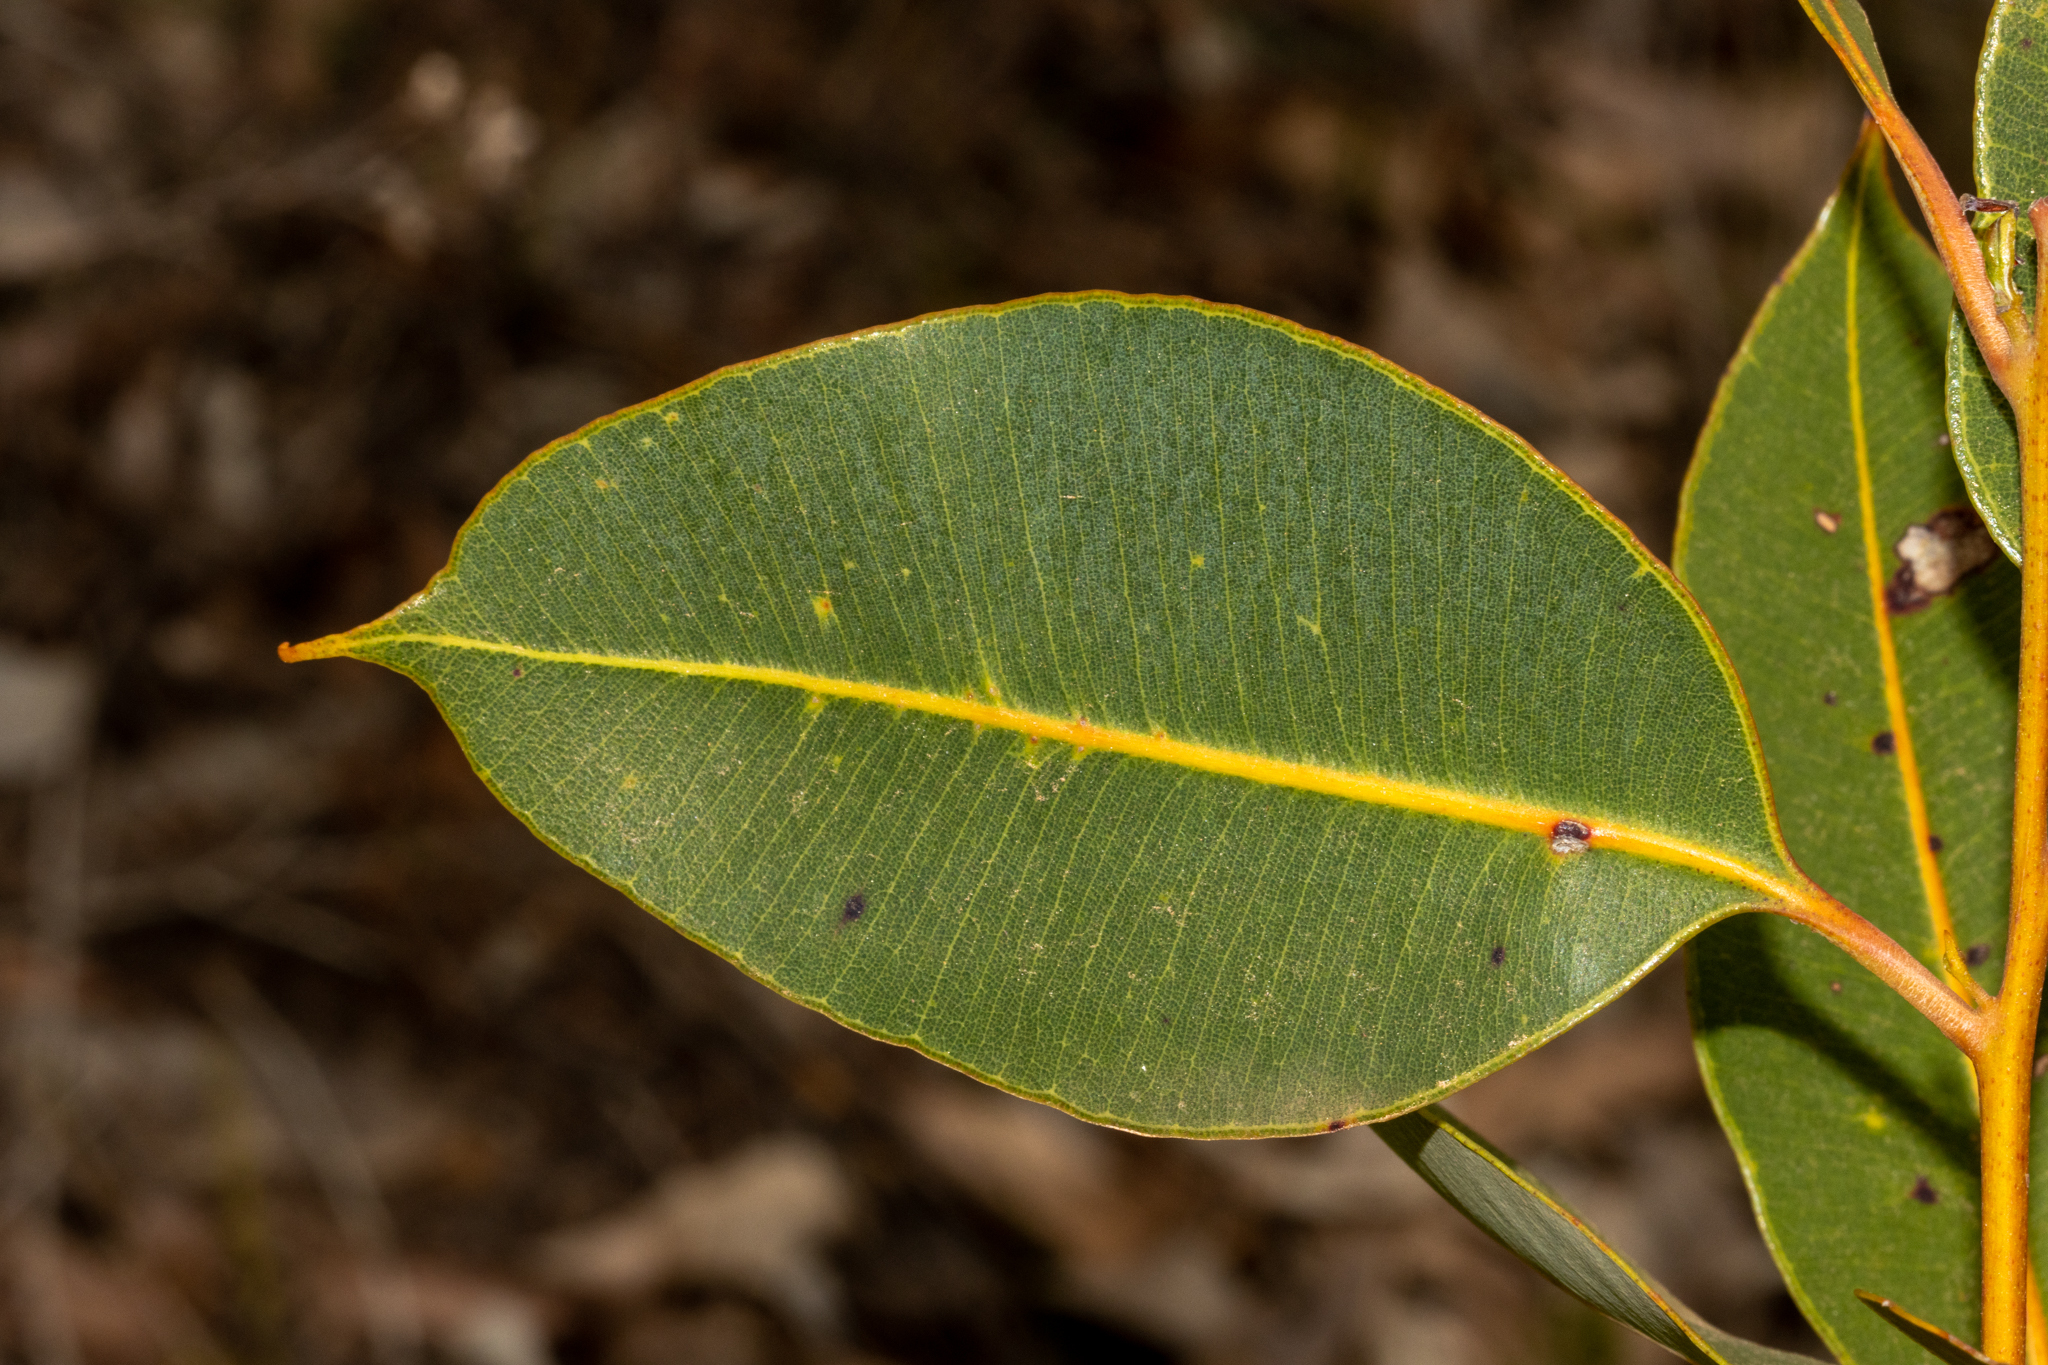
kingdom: Plantae
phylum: Tracheophyta
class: Magnoliopsida
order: Myrtales
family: Myrtaceae
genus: Corymbia
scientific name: Corymbia haematoxylon
